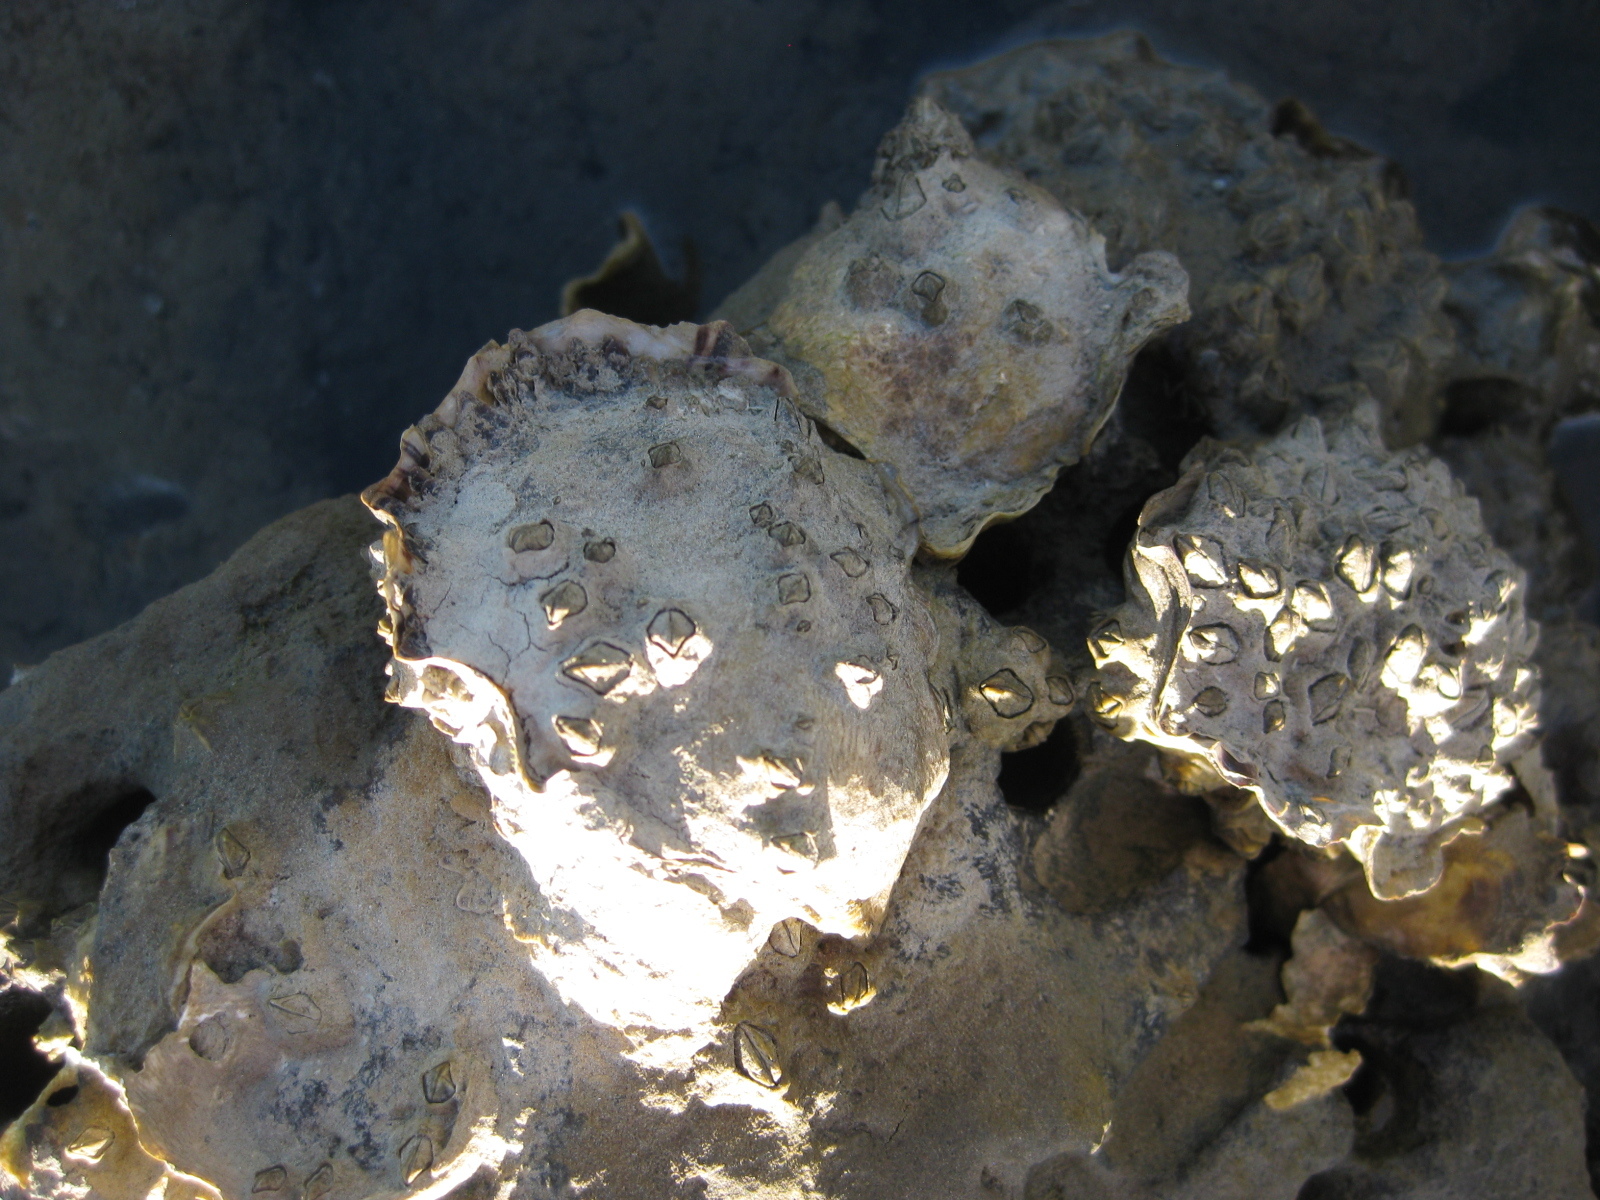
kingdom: Animalia
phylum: Mollusca
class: Bivalvia
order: Ostreida
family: Ostreidae
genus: Magallana
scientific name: Magallana gigas
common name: Pacific oyster
